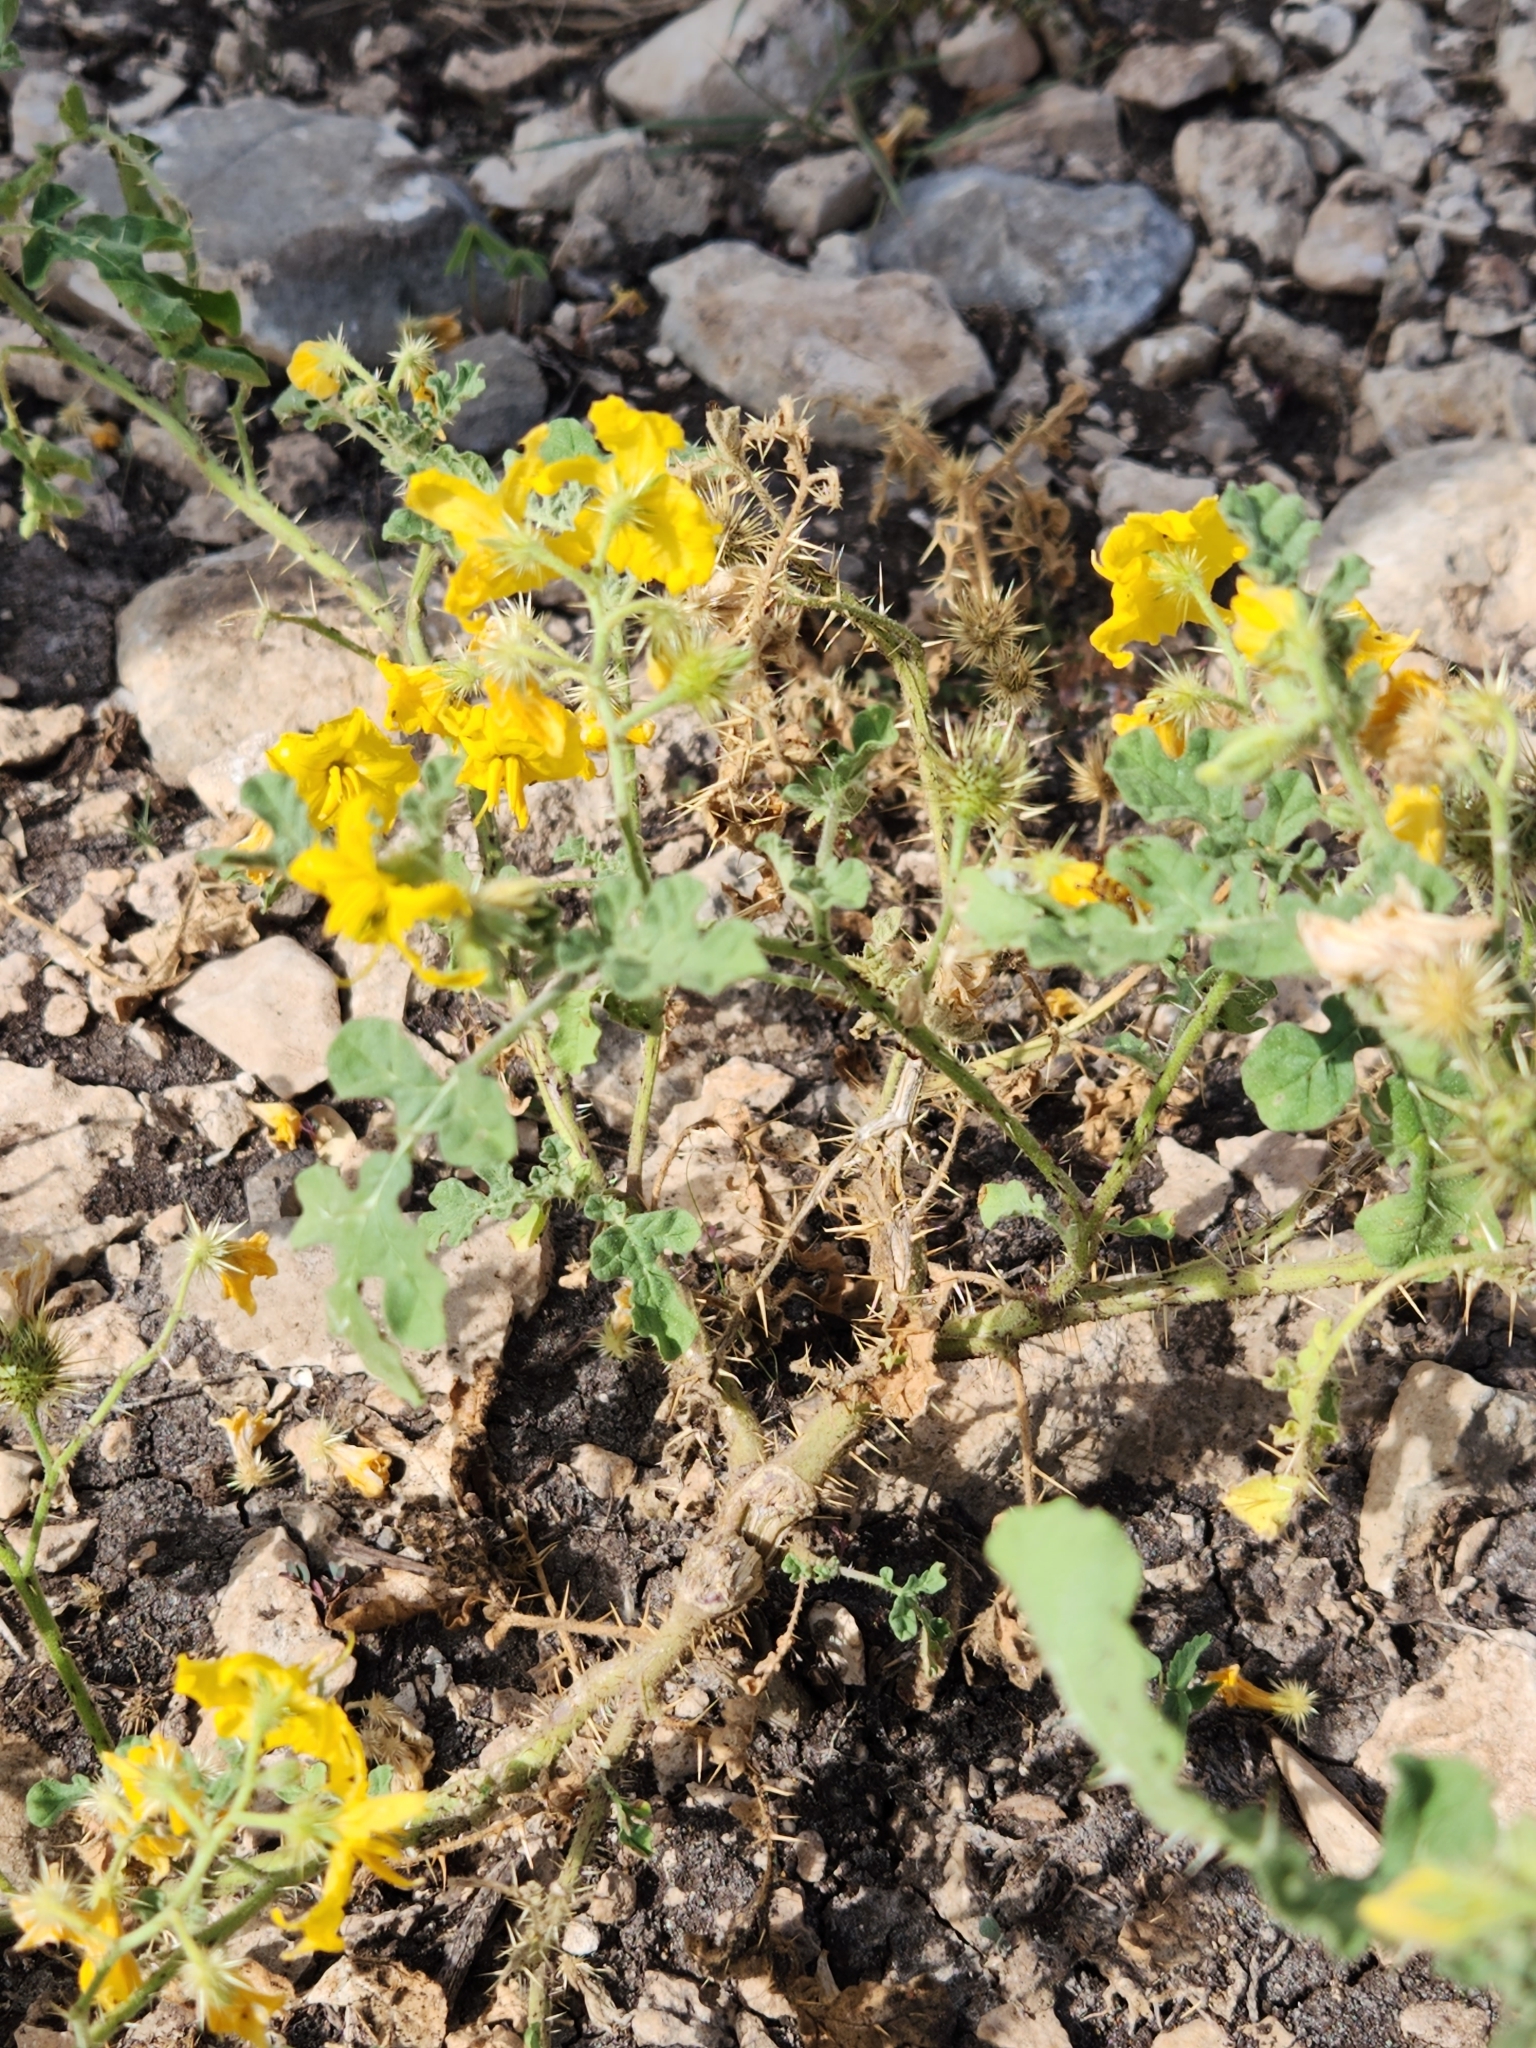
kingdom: Plantae
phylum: Tracheophyta
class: Magnoliopsida
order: Solanales
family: Solanaceae
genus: Solanum
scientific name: Solanum angustifolium
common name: Buffalobur nightshade
